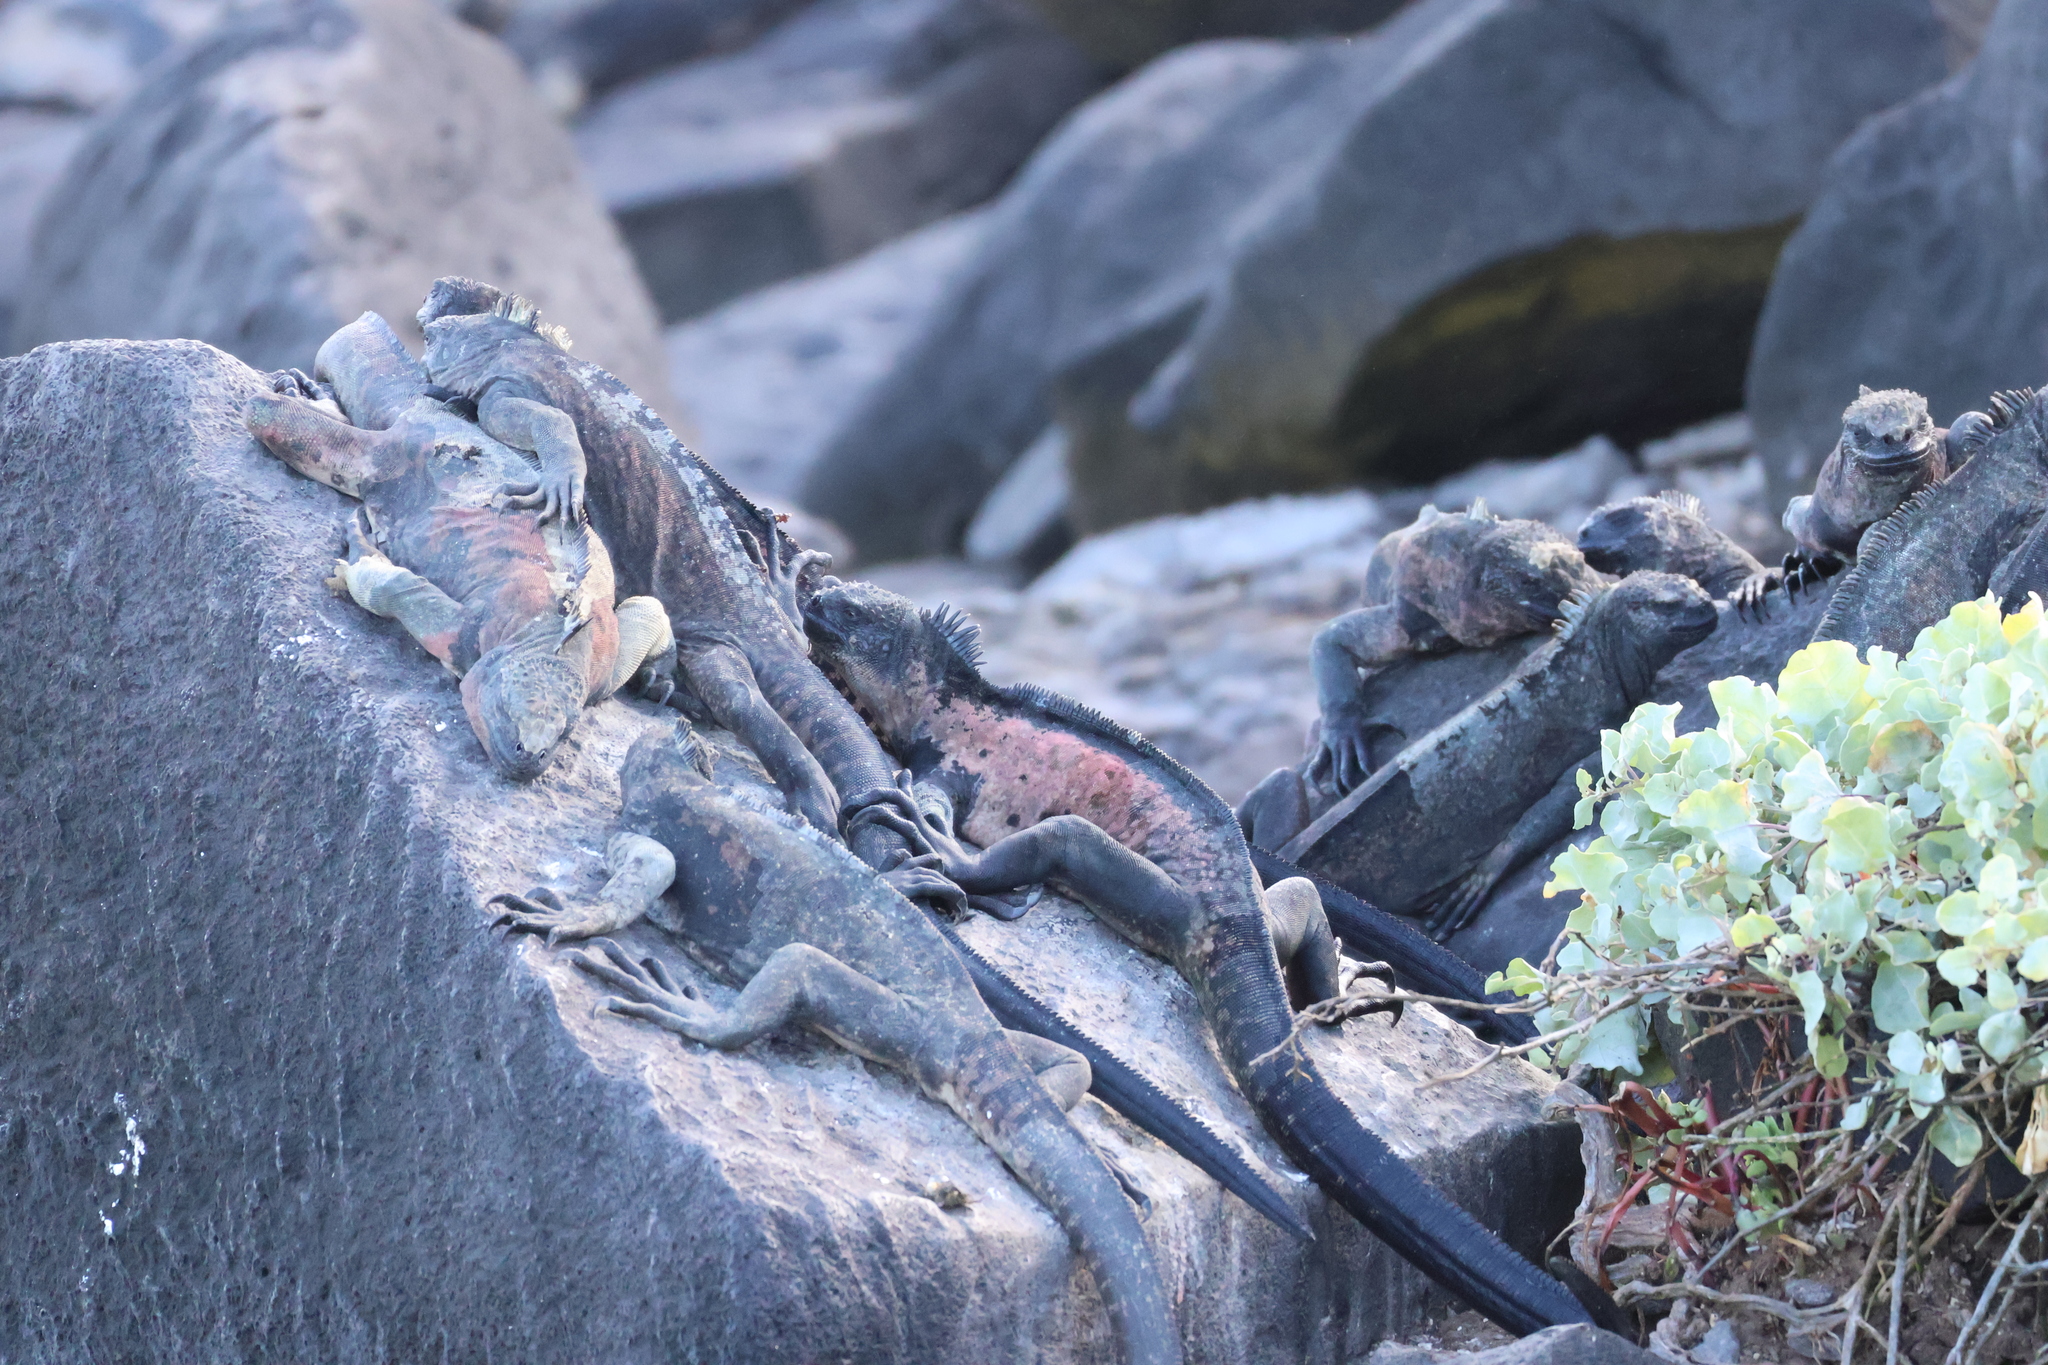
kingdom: Animalia
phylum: Chordata
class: Squamata
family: Iguanidae
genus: Amblyrhynchus
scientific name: Amblyrhynchus cristatus
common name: Marine iguana
